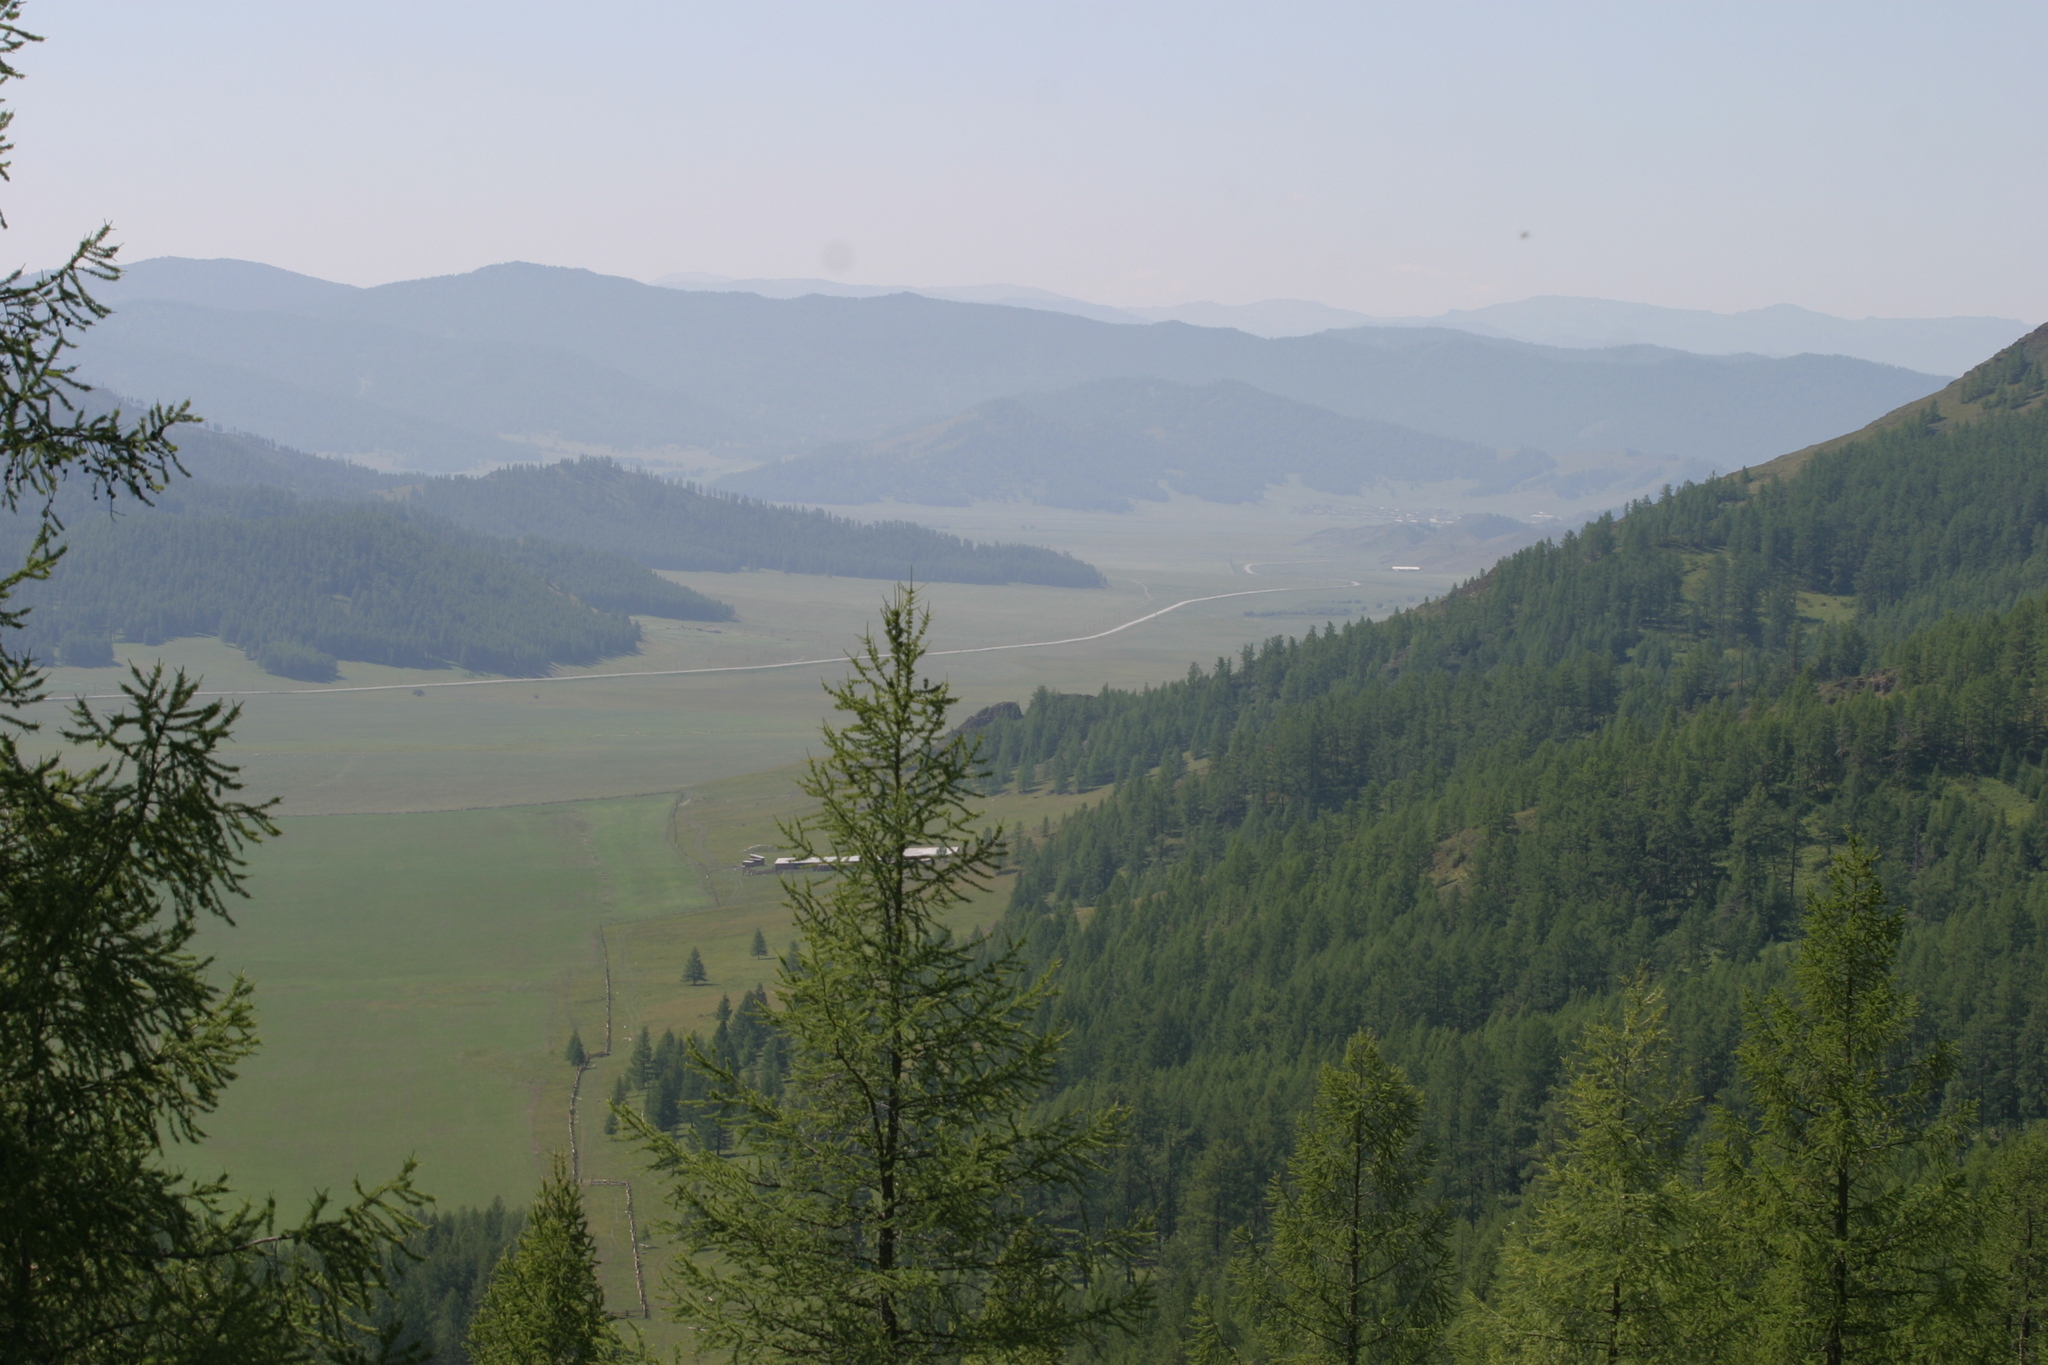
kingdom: Plantae
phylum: Tracheophyta
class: Pinopsida
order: Pinales
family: Pinaceae
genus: Larix
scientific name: Larix sibirica
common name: Siberian larch
